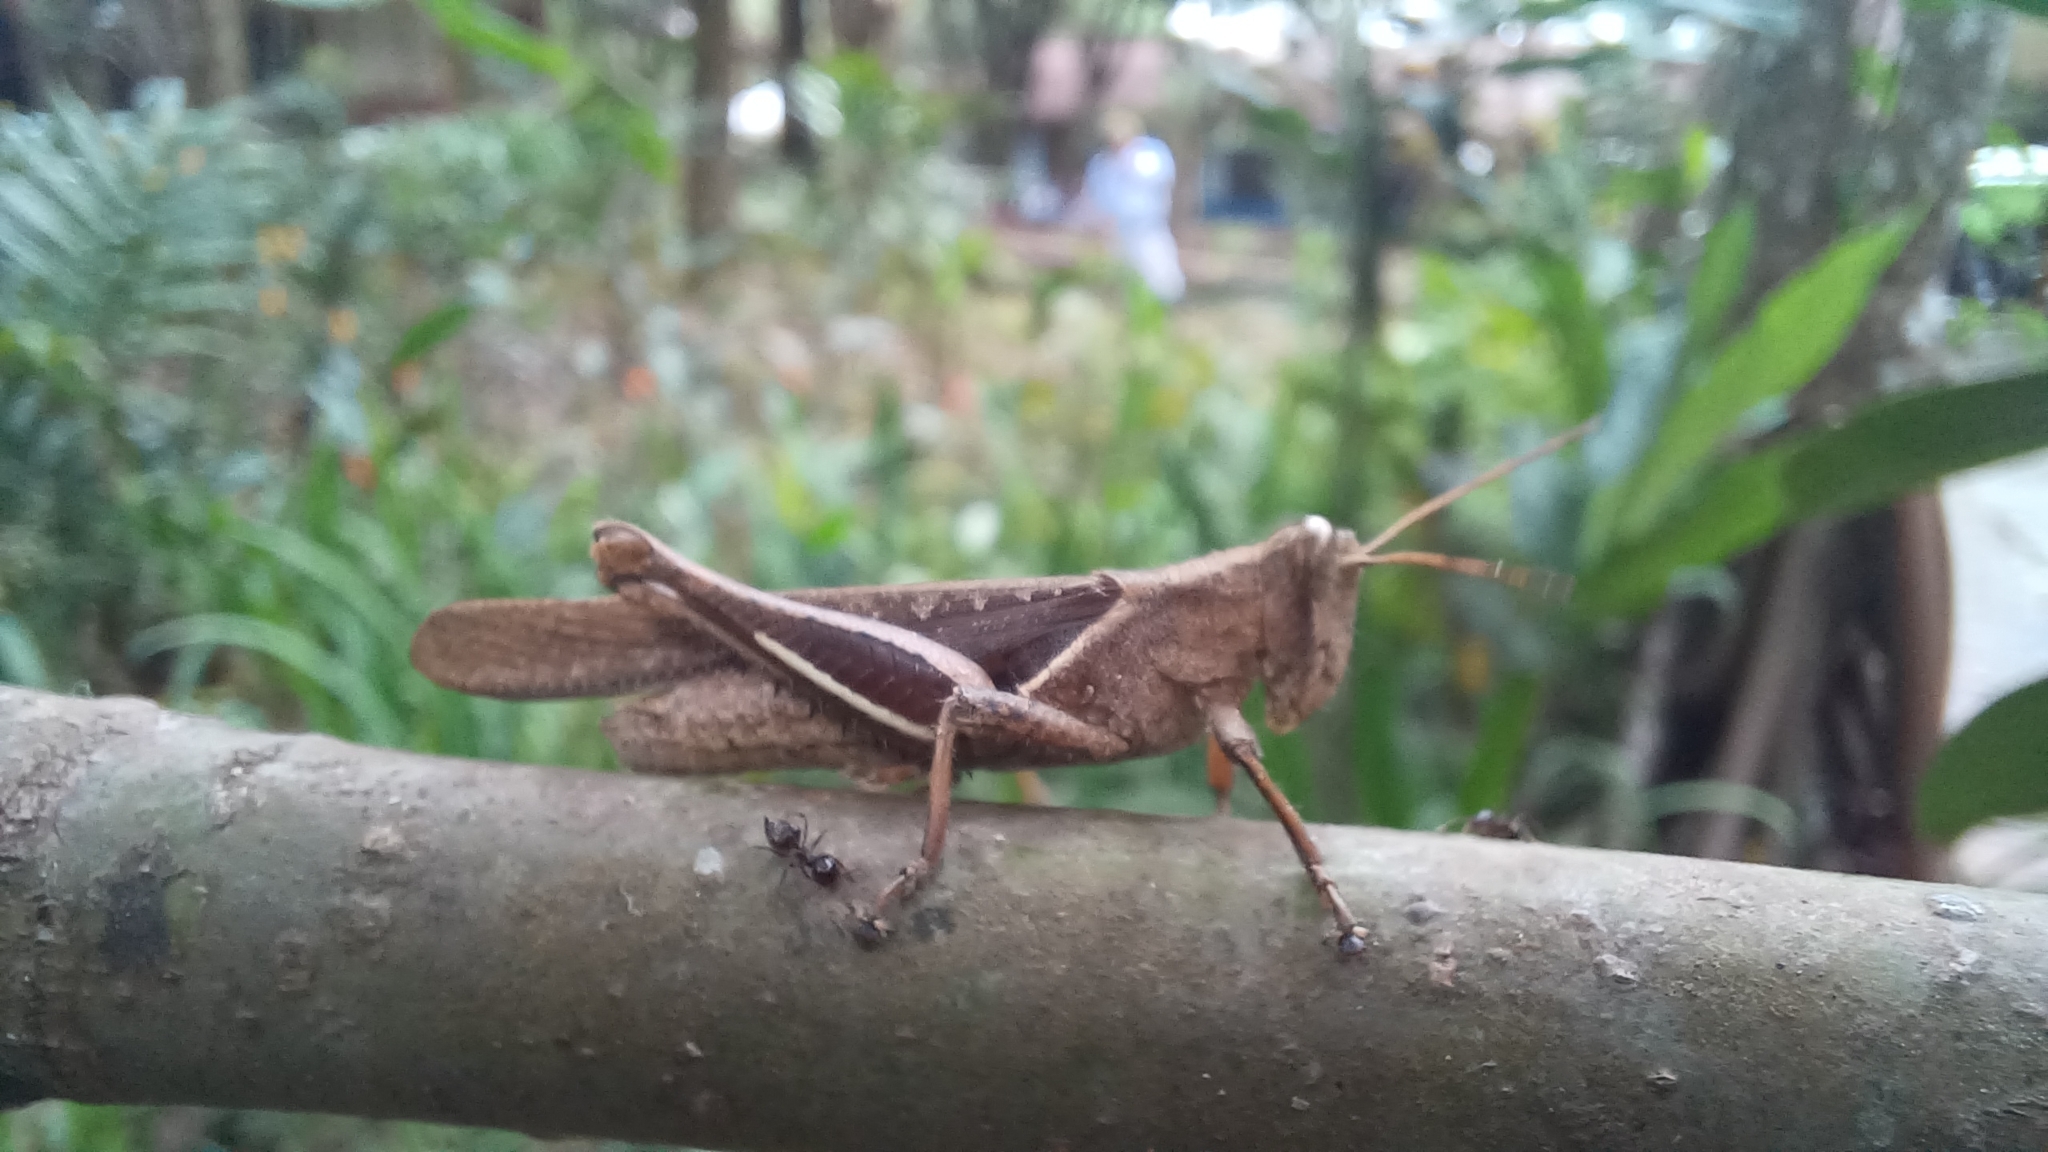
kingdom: Animalia
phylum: Arthropoda
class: Insecta
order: Orthoptera
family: Acrididae
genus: Abracris
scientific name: Abracris flavolineata
